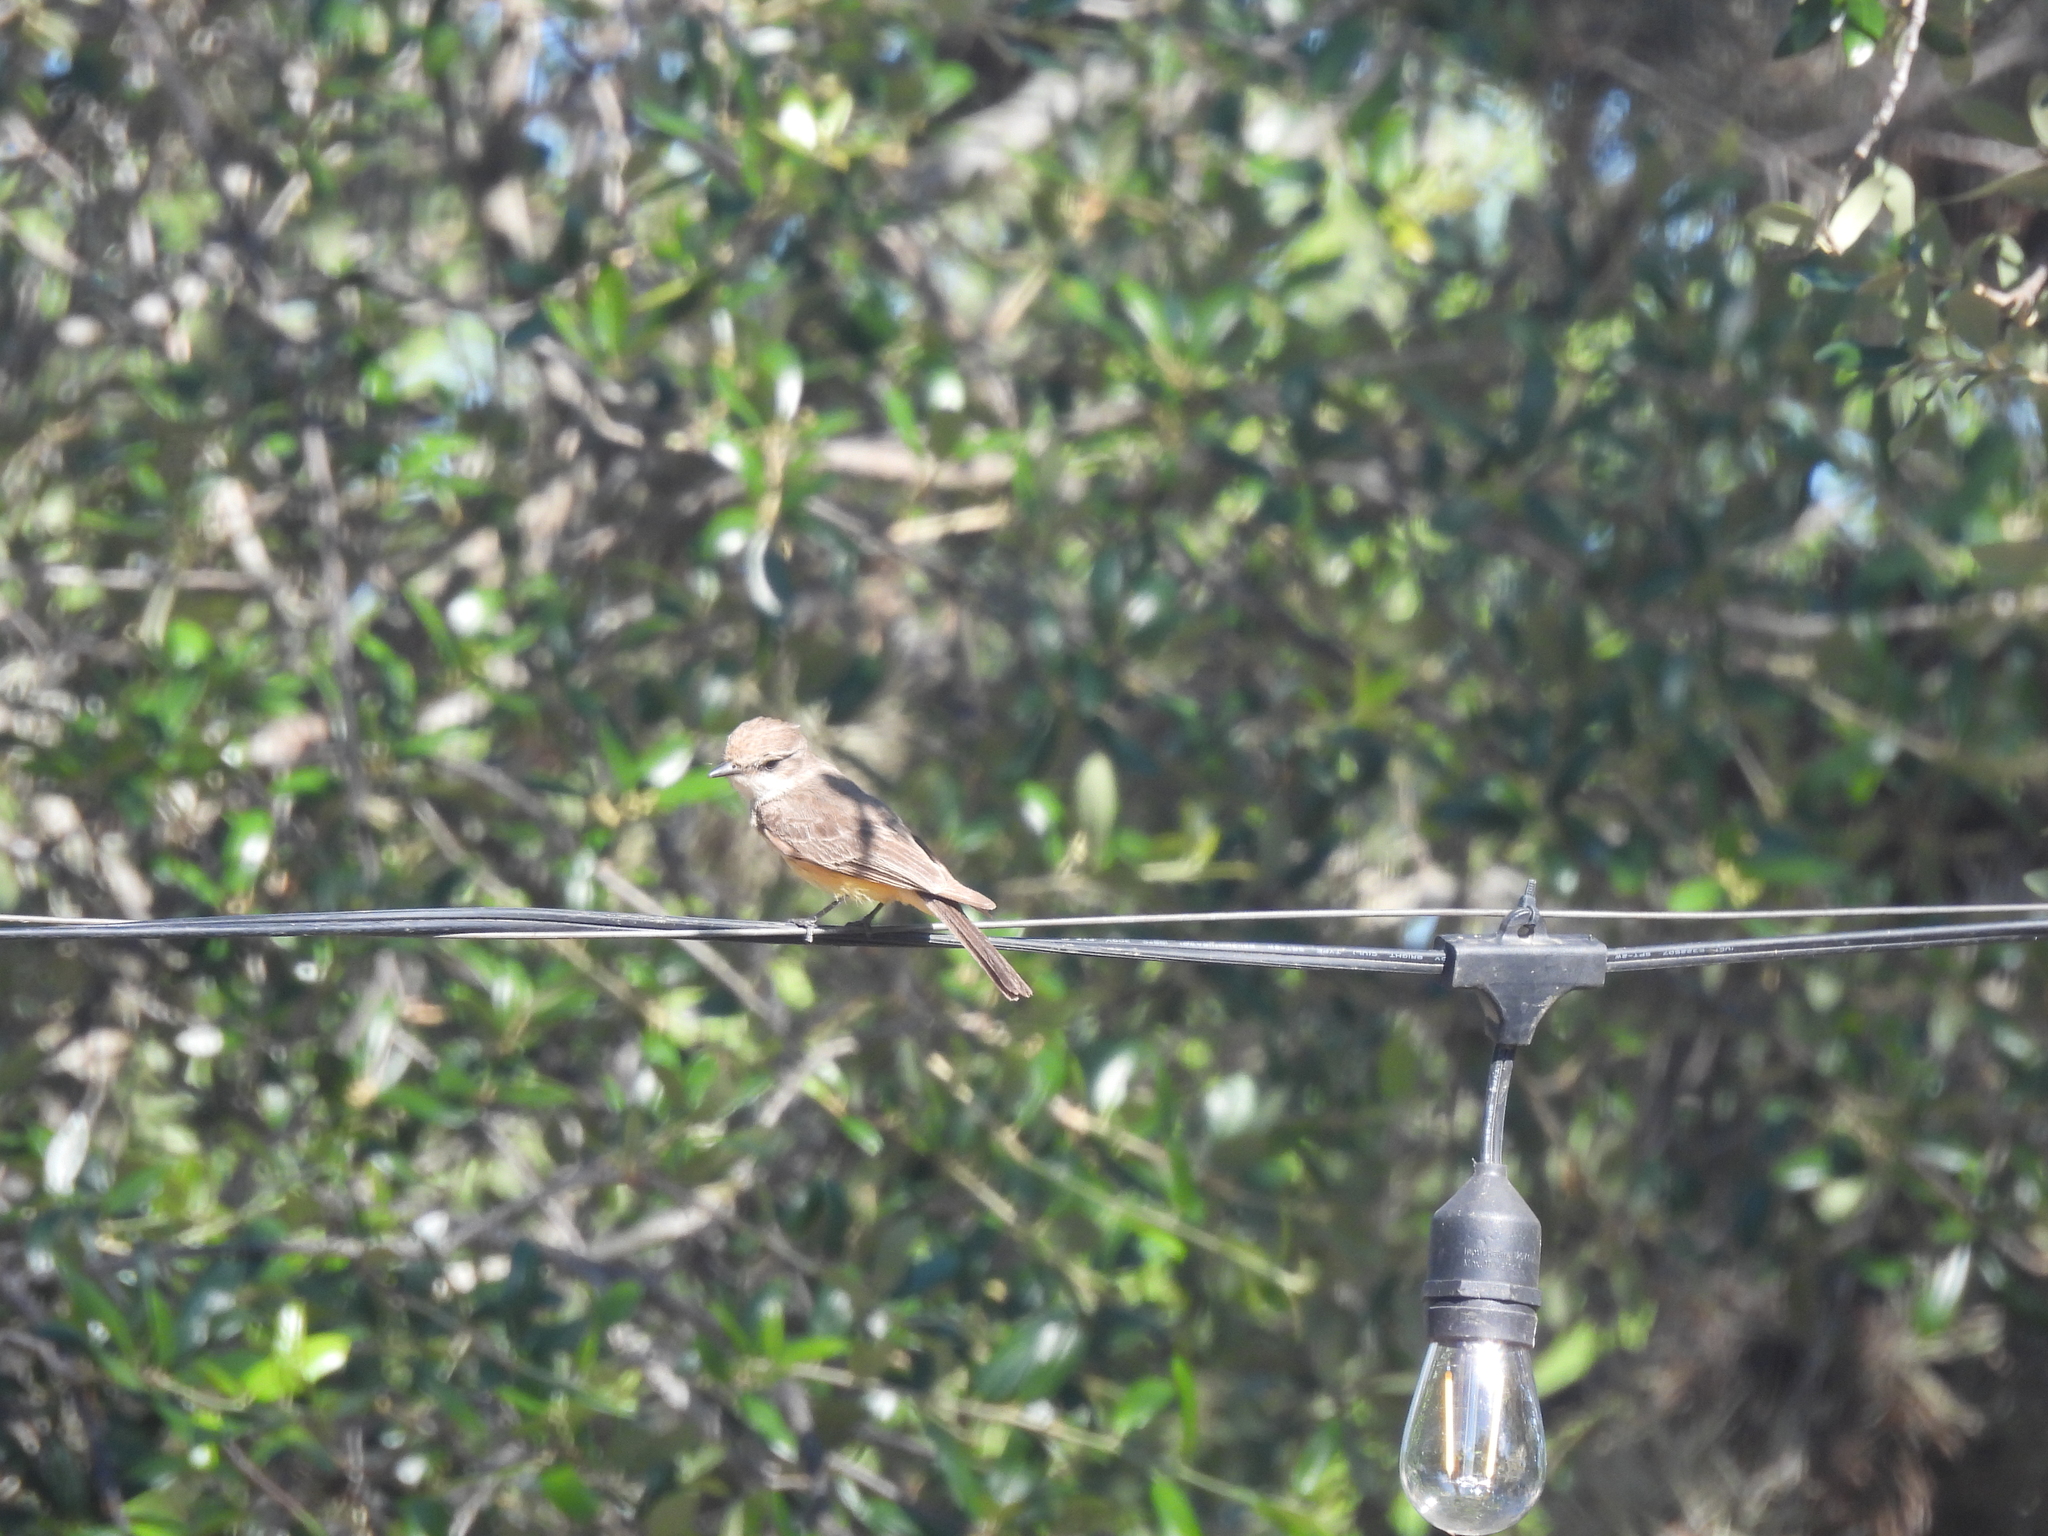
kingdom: Animalia
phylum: Chordata
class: Aves
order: Passeriformes
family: Tyrannidae
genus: Pyrocephalus
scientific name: Pyrocephalus rubinus
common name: Vermilion flycatcher
